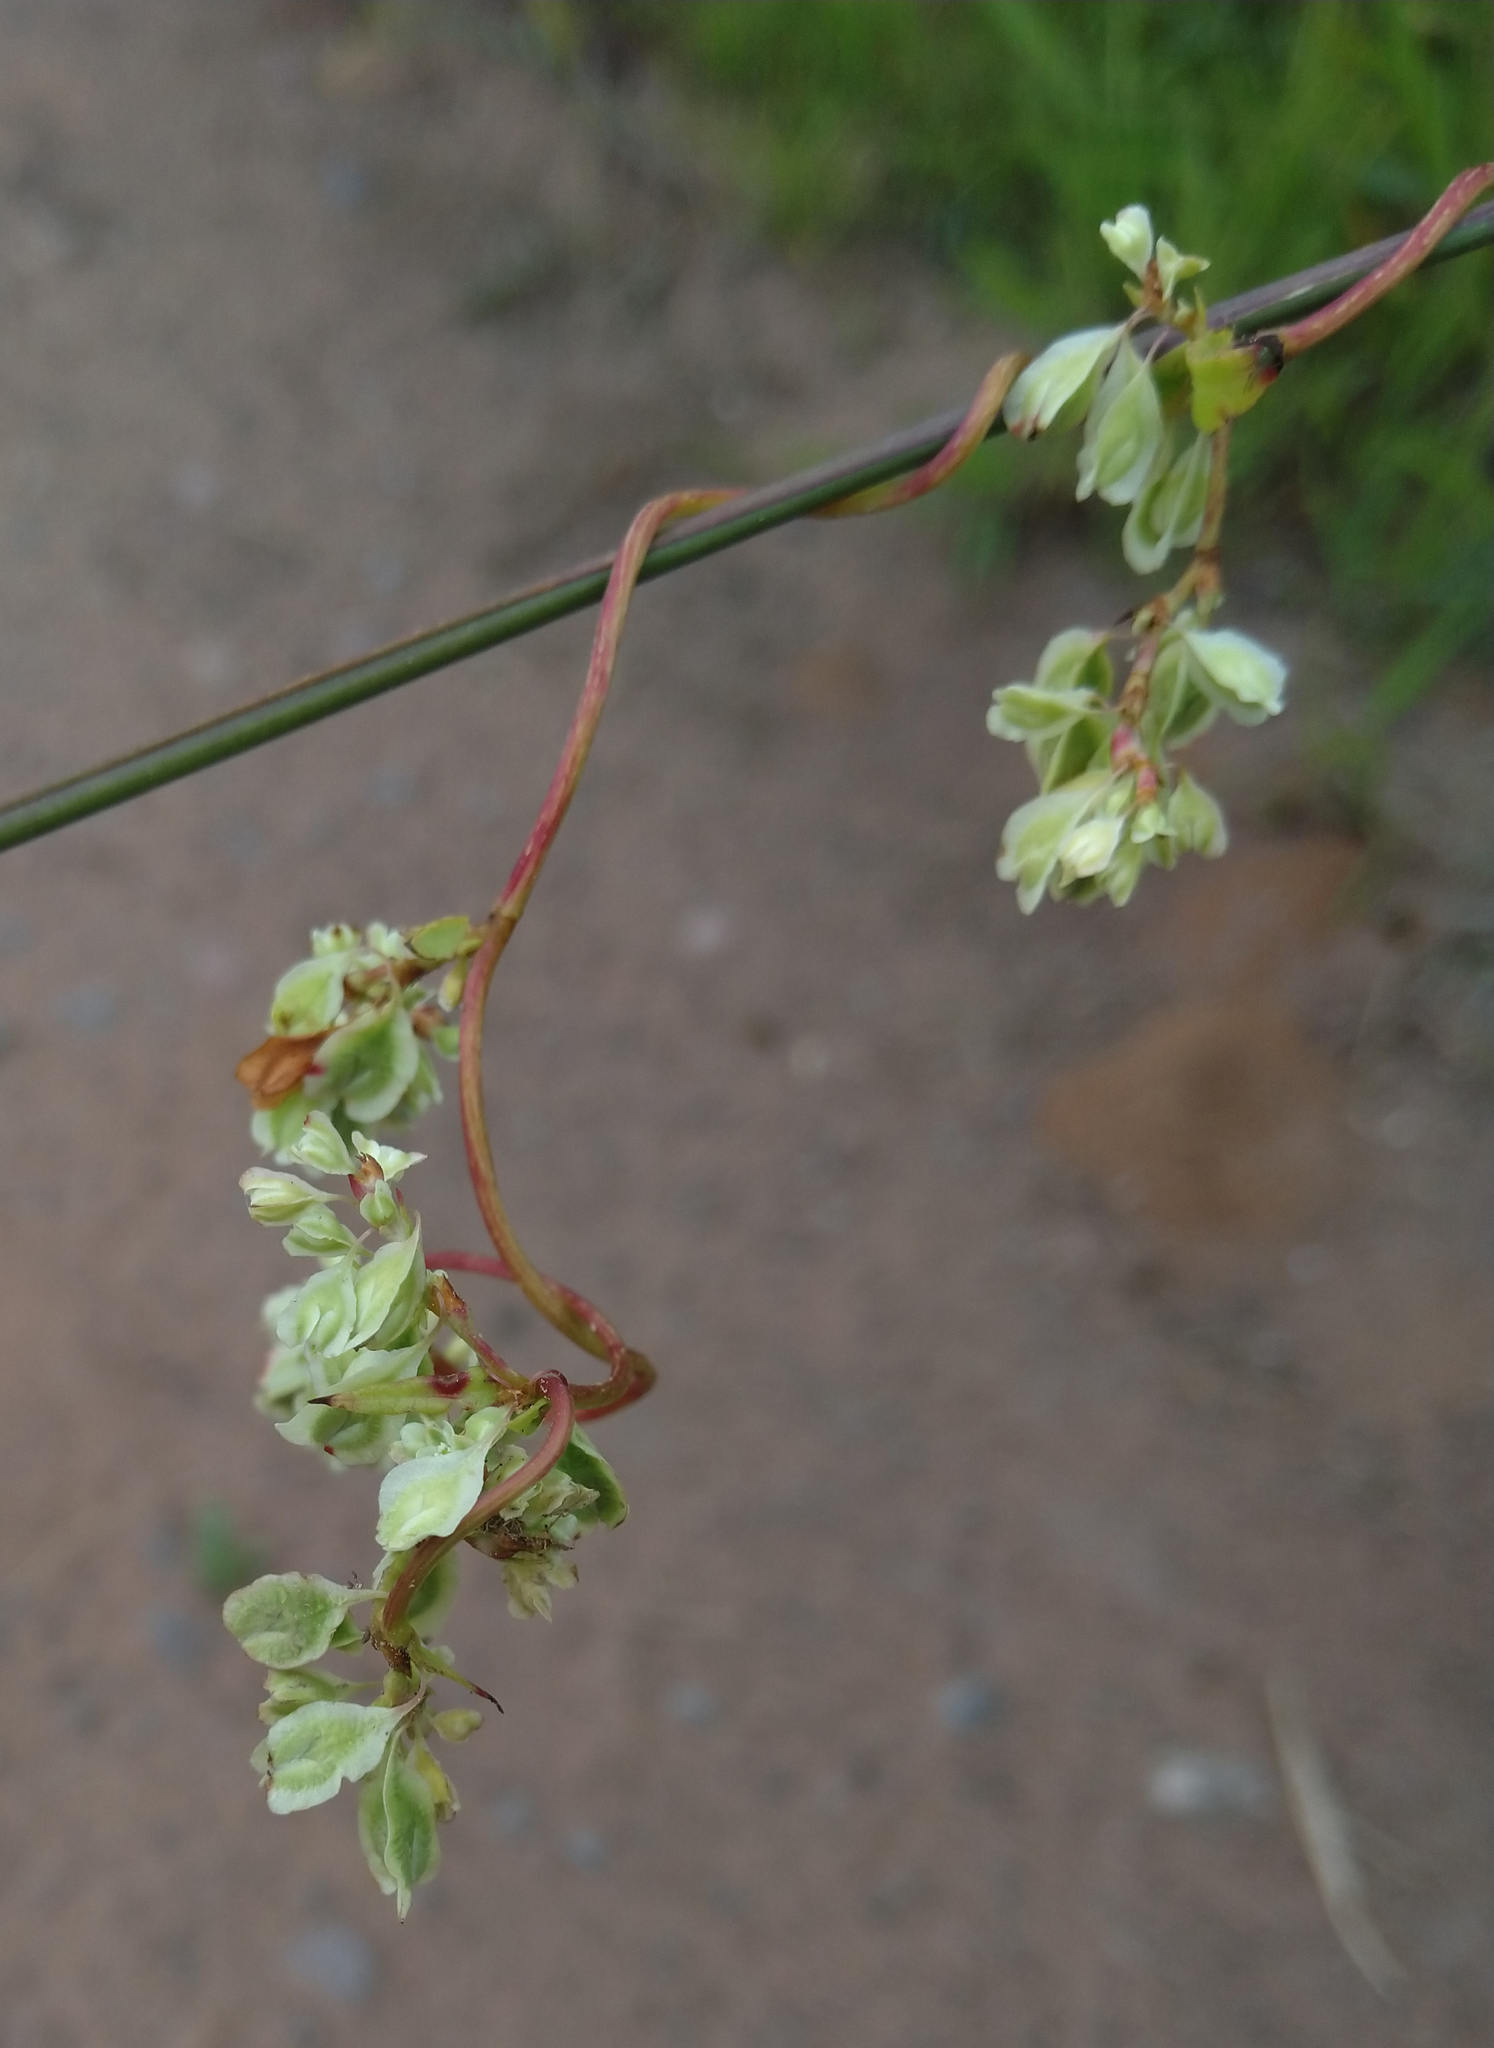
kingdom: Plantae
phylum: Tracheophyta
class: Magnoliopsida
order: Caryophyllales
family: Polygonaceae
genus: Fallopia
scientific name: Fallopia scandens
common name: Climbing false buckwheat
